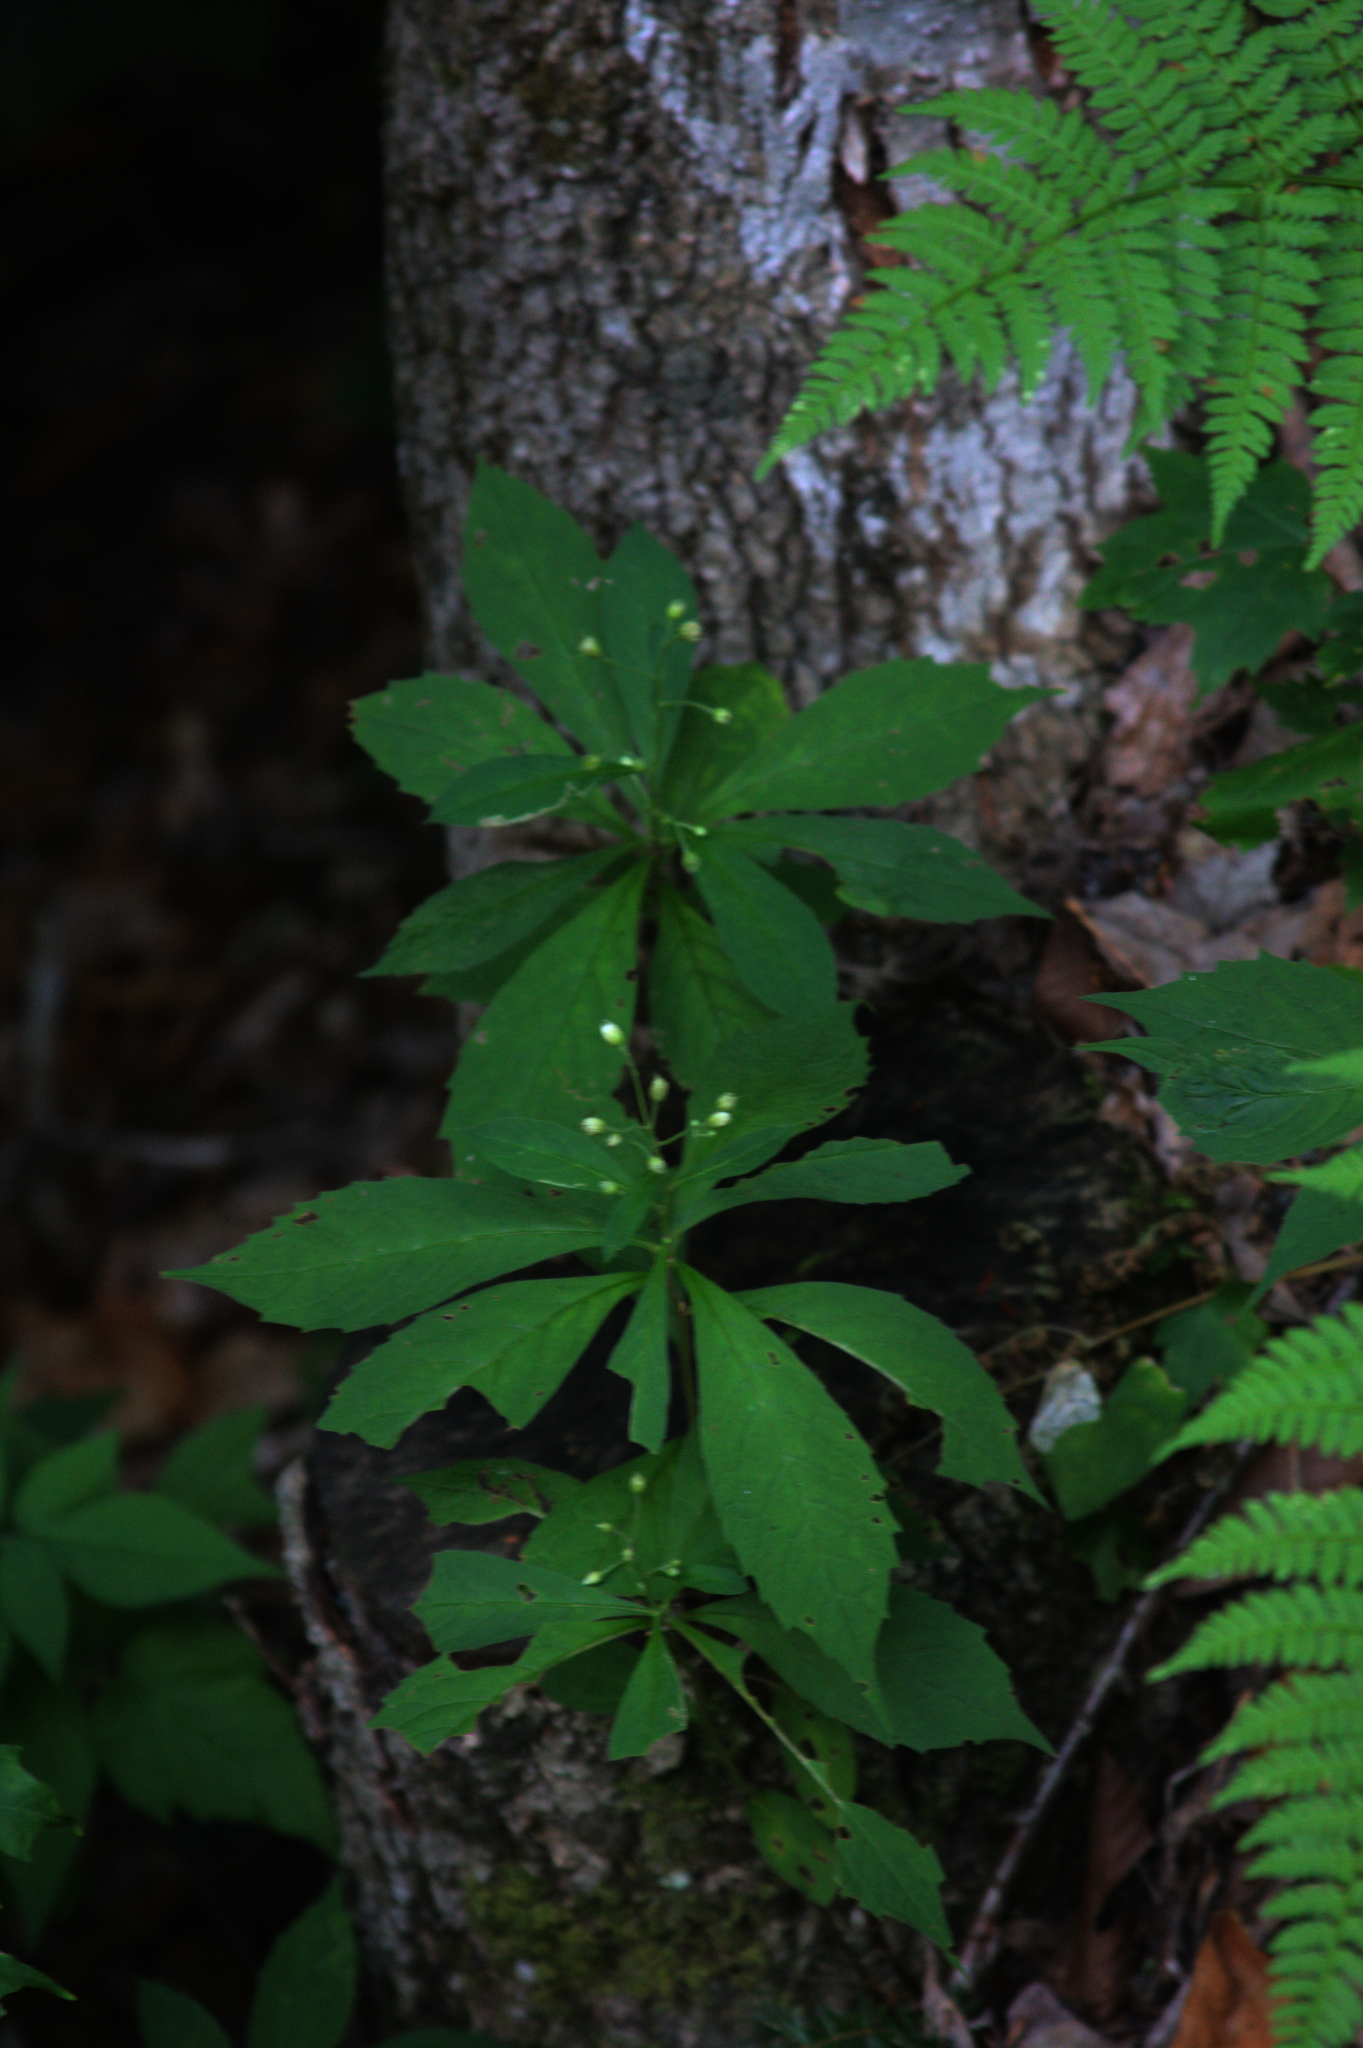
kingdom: Plantae
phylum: Tracheophyta
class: Magnoliopsida
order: Asterales
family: Asteraceae
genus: Oclemena
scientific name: Oclemena acuminata
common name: Mountain aster
